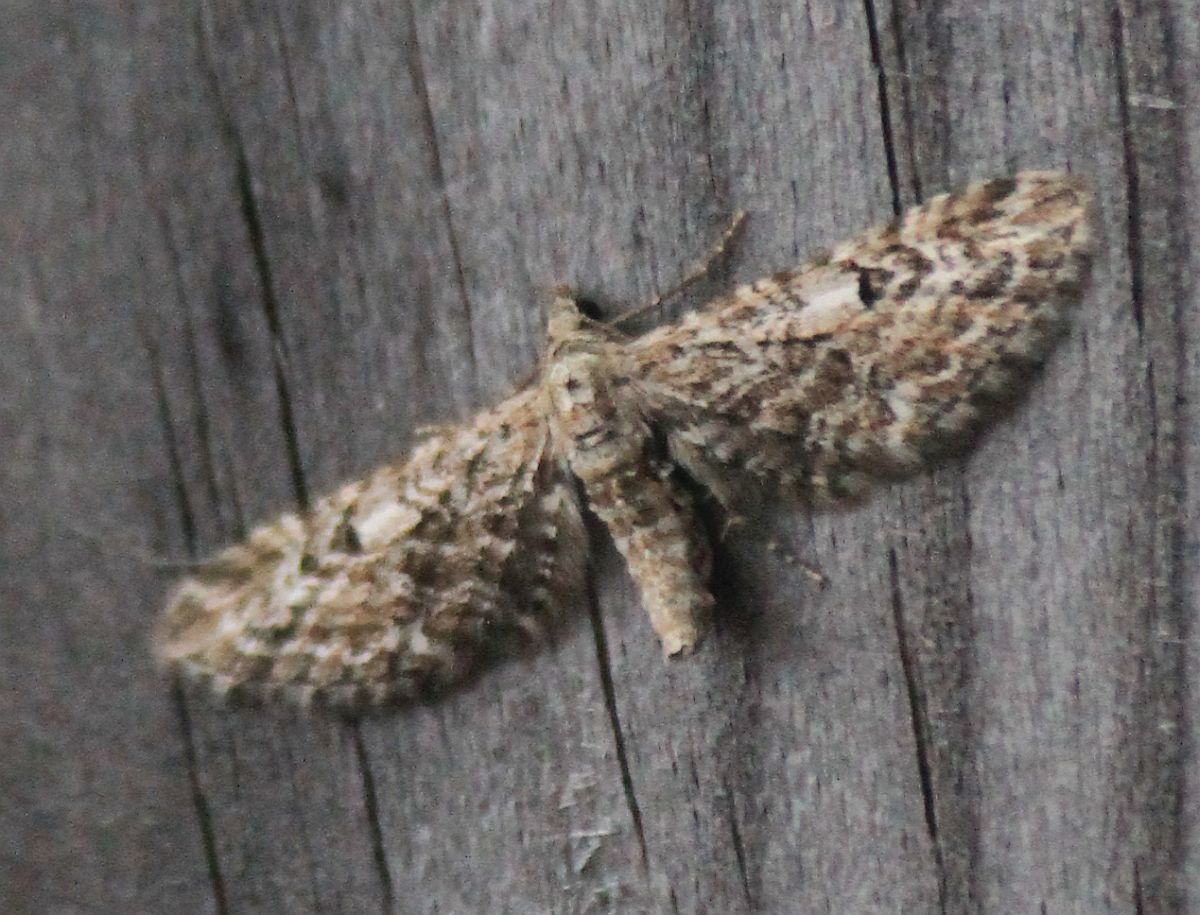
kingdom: Animalia
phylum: Arthropoda
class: Insecta
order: Lepidoptera
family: Geometridae
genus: Eupithecia
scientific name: Eupithecia nanata
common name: Narrow-winged pug
